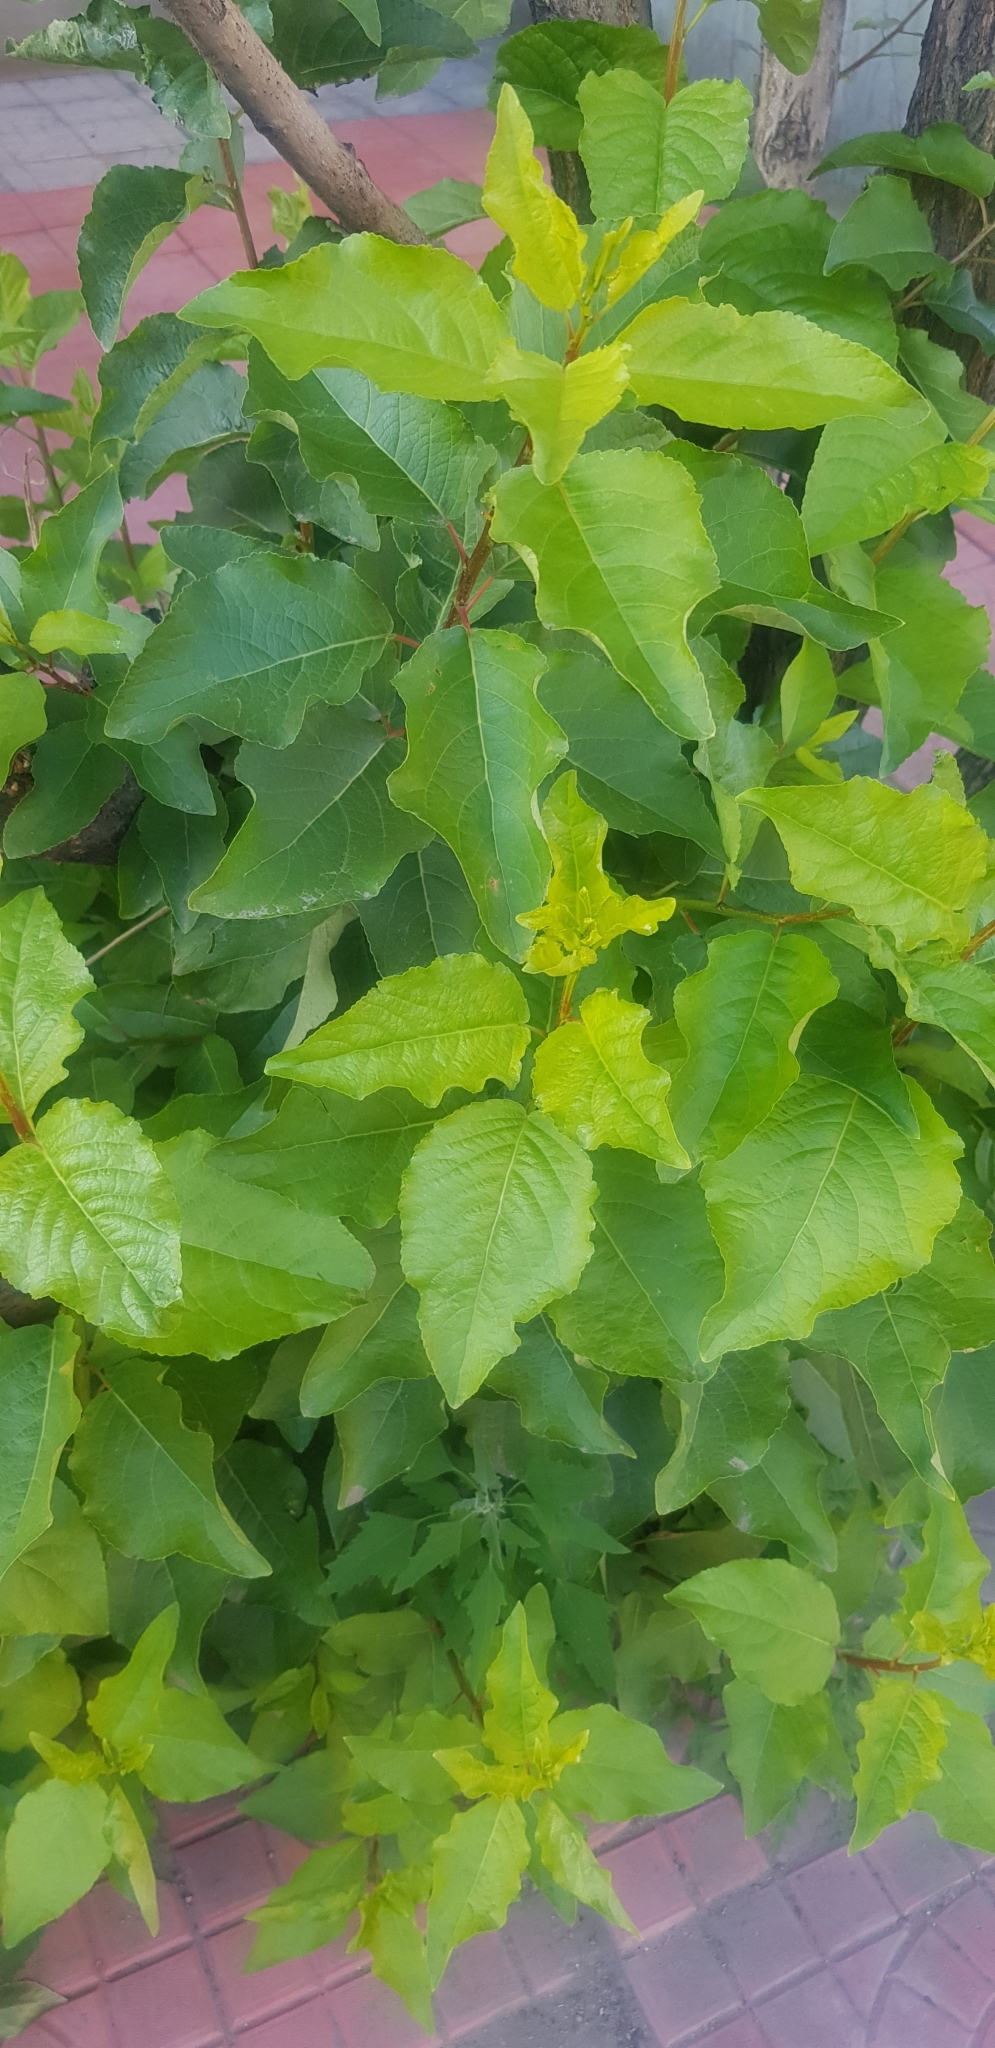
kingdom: Plantae
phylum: Tracheophyta
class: Magnoliopsida
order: Rosales
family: Rosaceae
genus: Prunus
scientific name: Prunus padus
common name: Bird cherry
